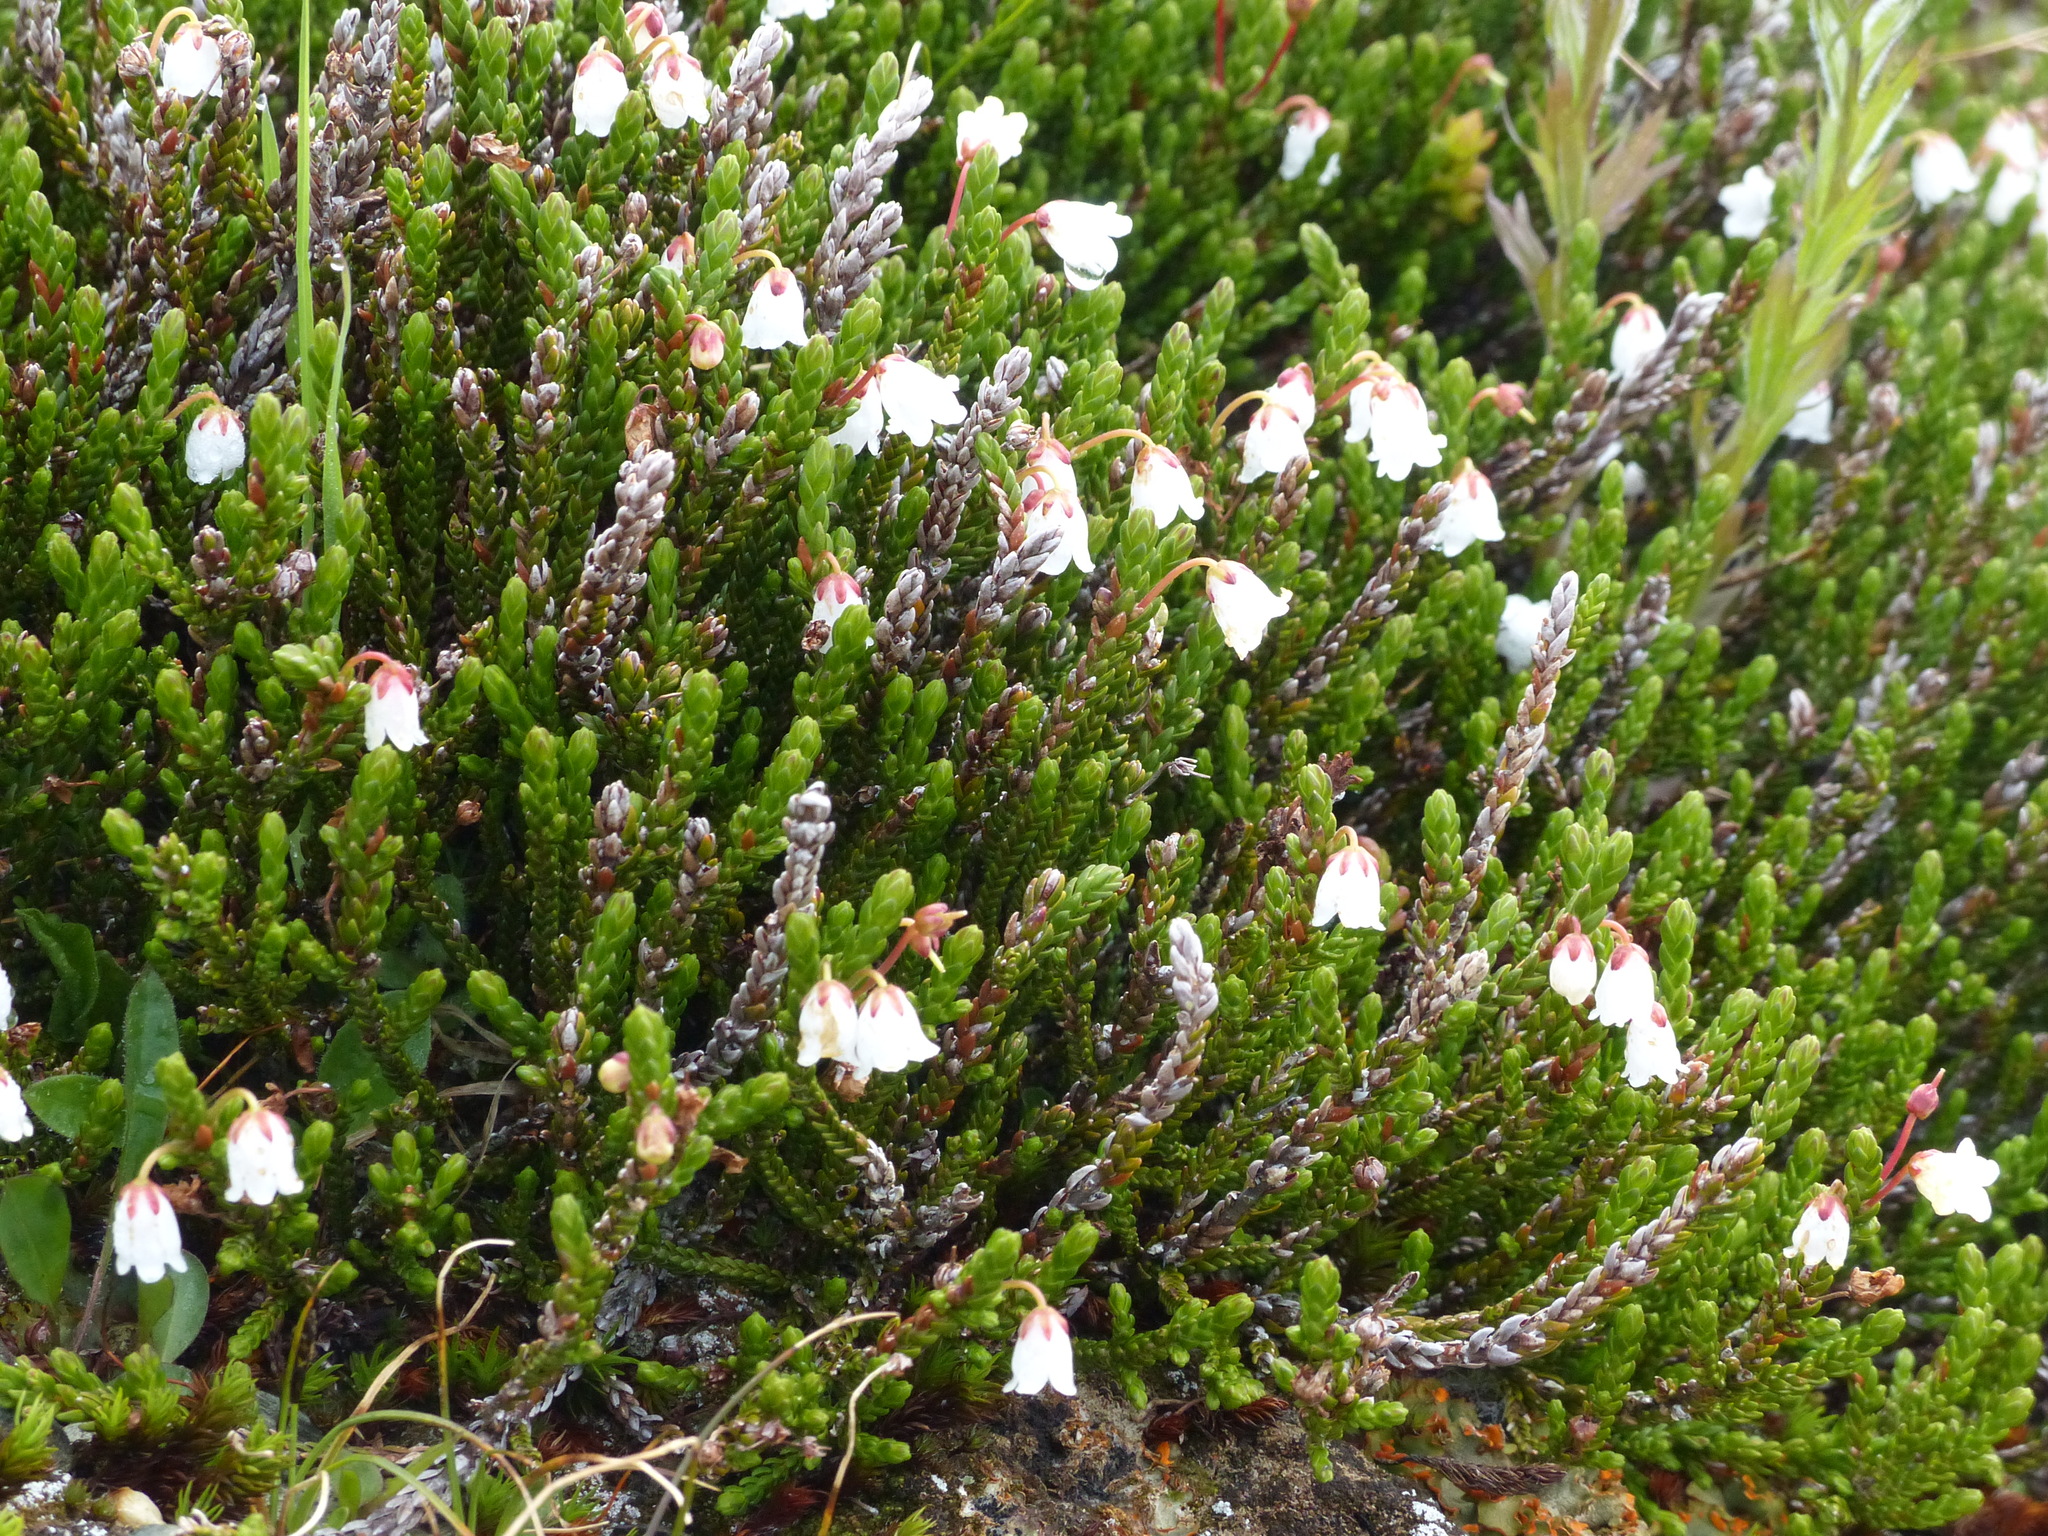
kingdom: Plantae
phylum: Tracheophyta
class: Magnoliopsida
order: Ericales
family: Ericaceae
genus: Cassiope
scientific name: Cassiope mertensiana
